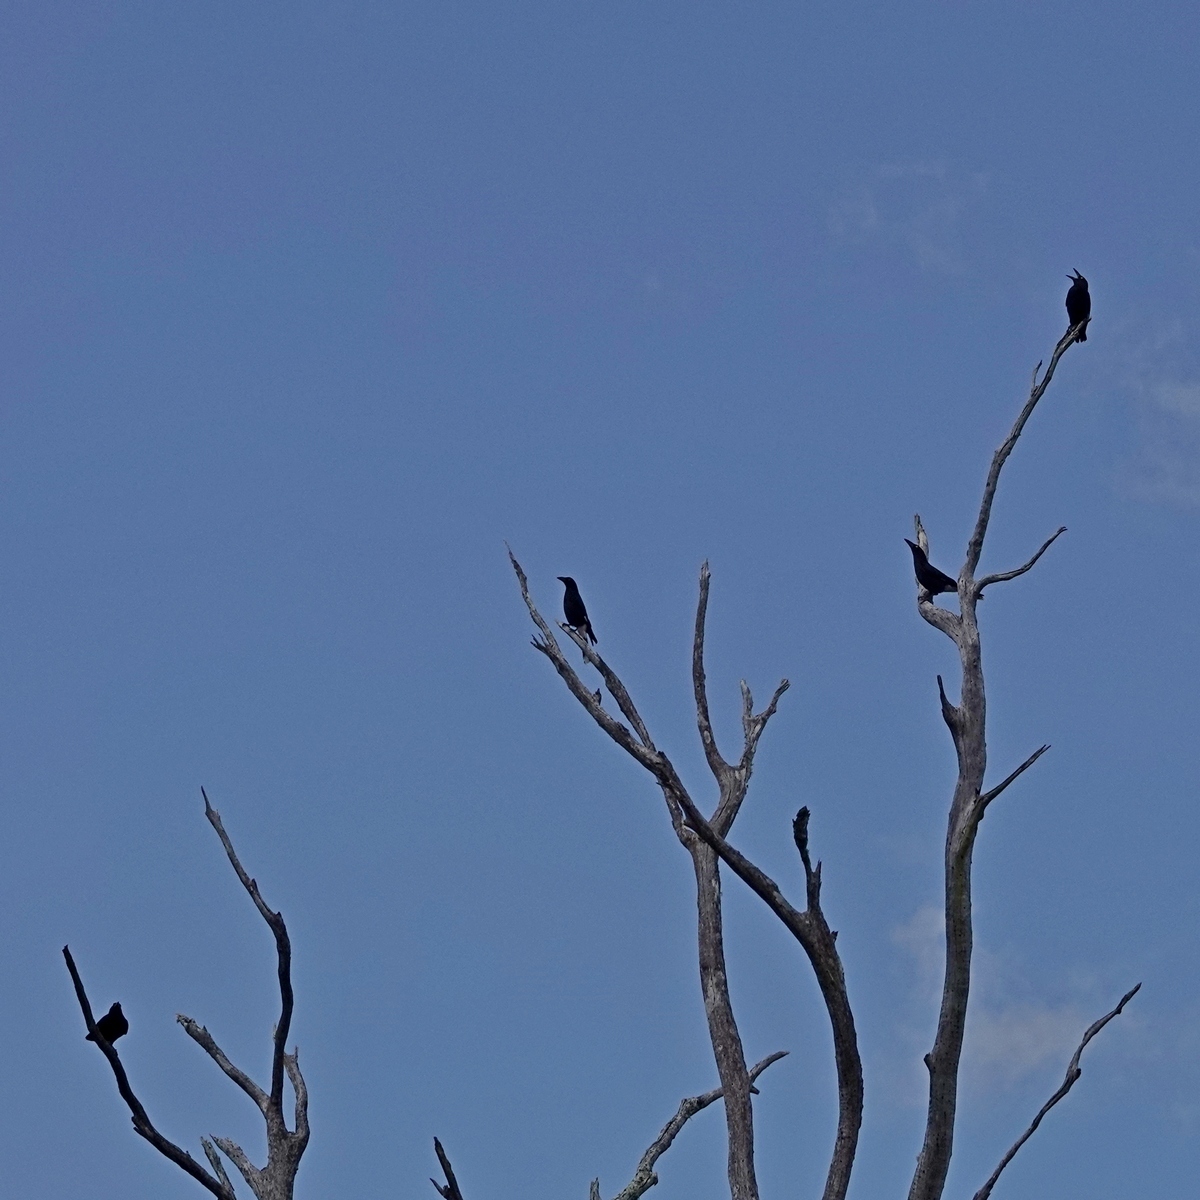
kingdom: Animalia
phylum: Chordata
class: Aves
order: Passeriformes
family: Cracticidae
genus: Strepera
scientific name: Strepera graculina
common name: Pied currawong
